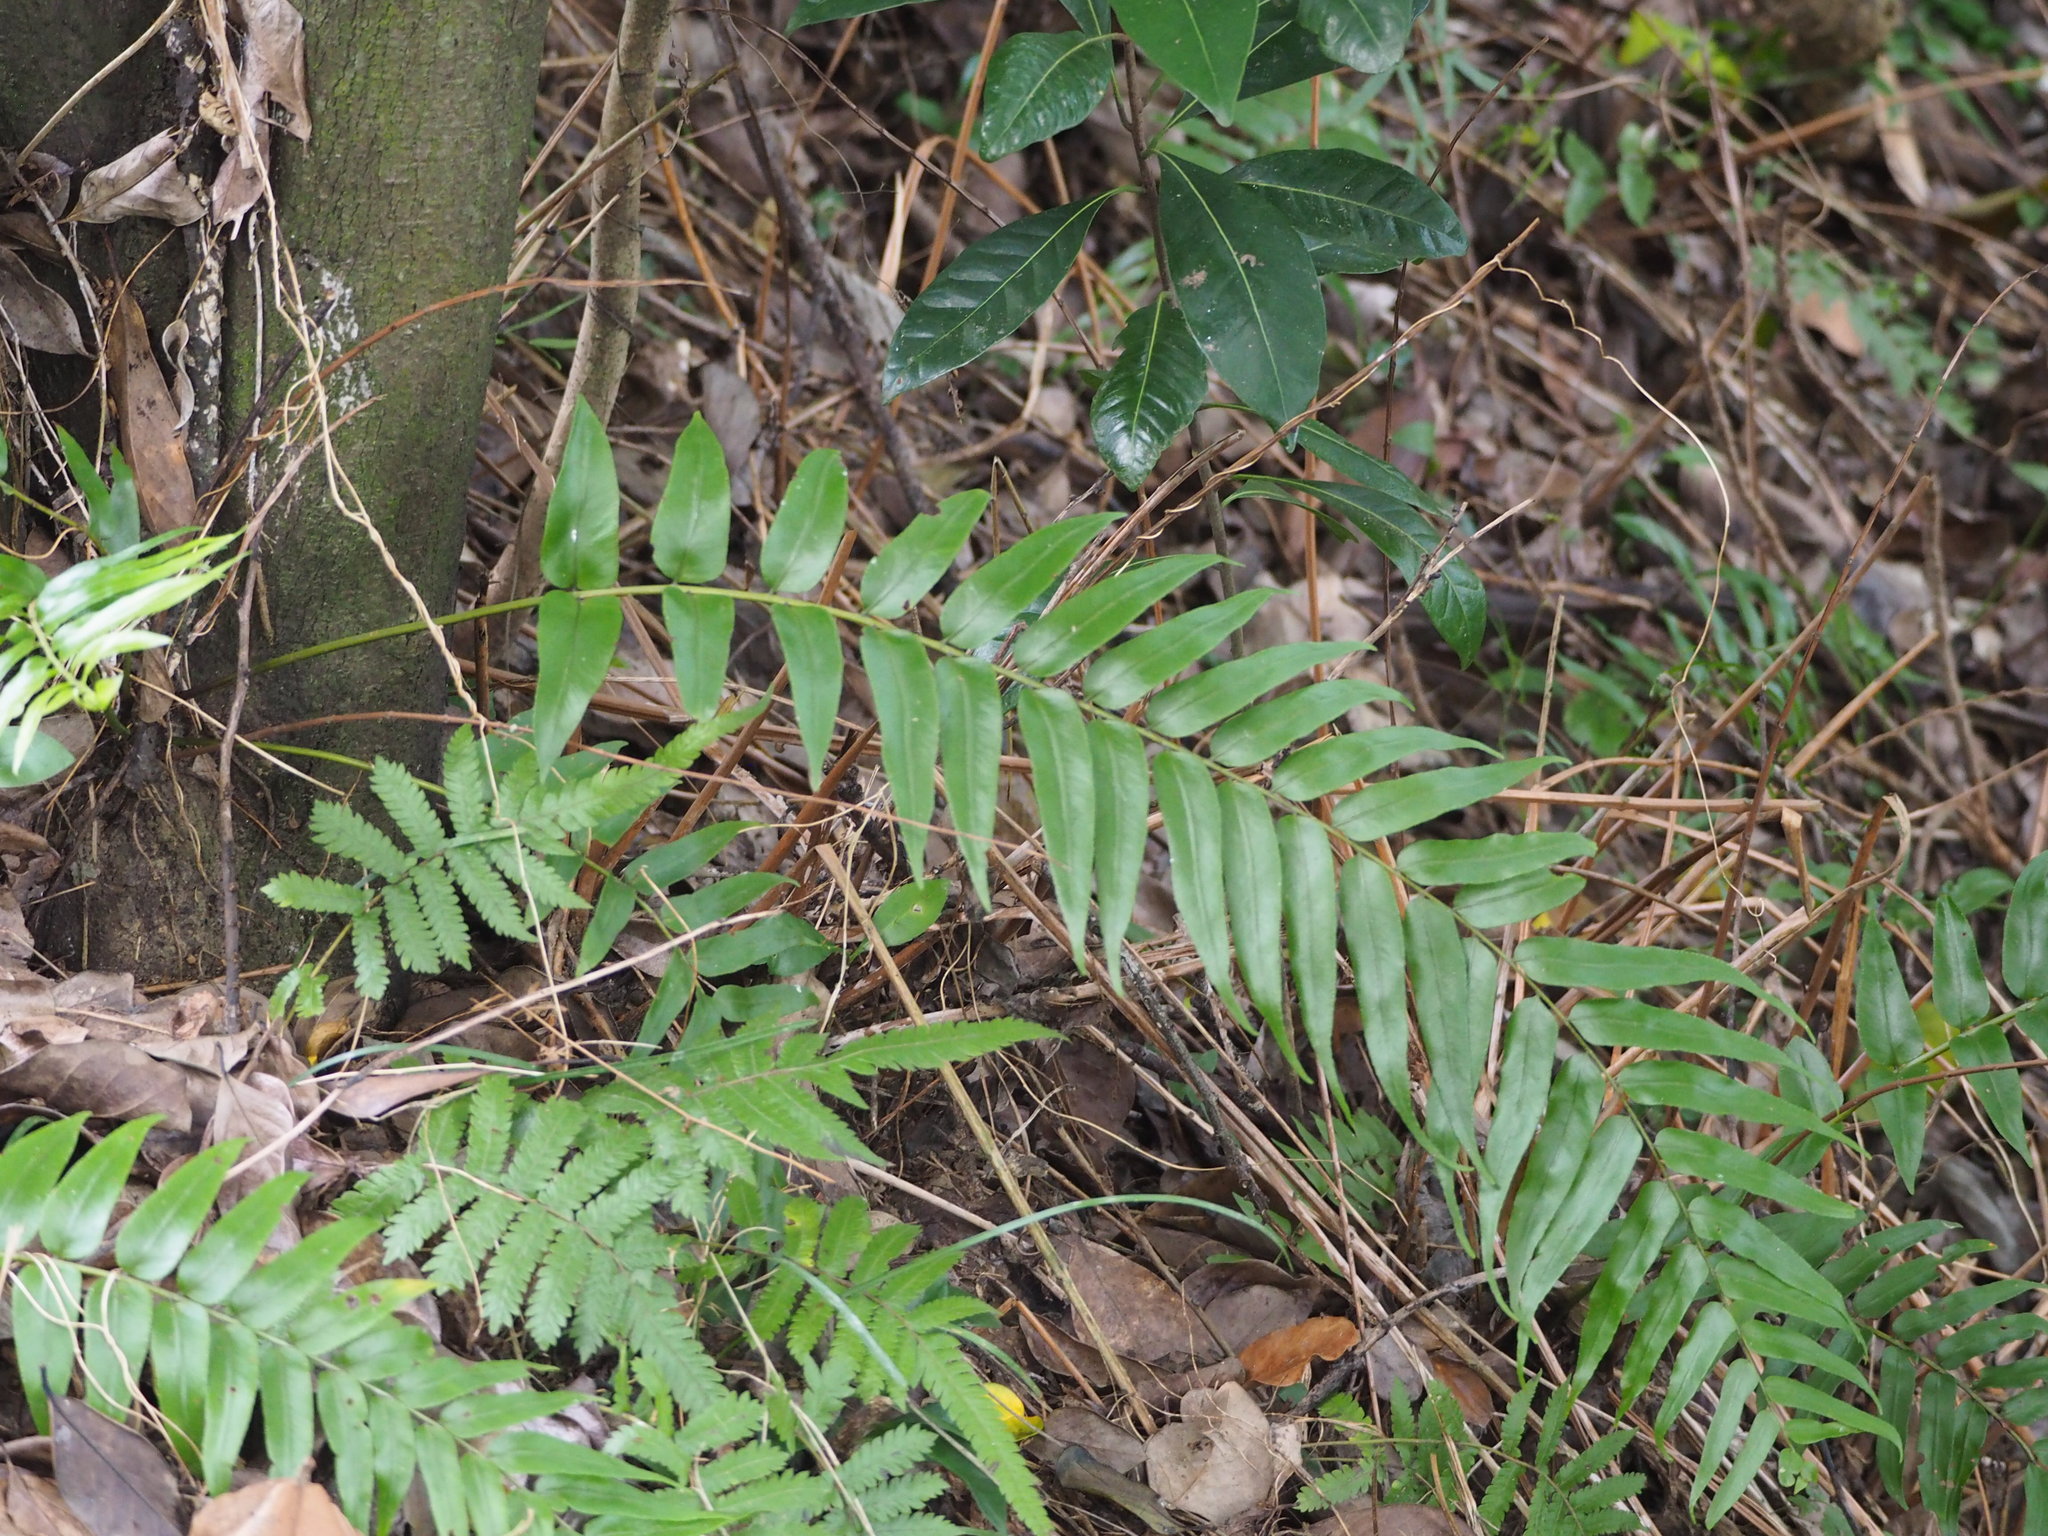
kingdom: Plantae
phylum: Tracheophyta
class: Polypodiopsida
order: Polypodiales
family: Nephrolepidaceae
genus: Nephrolepis
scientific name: Nephrolepis biserrata
